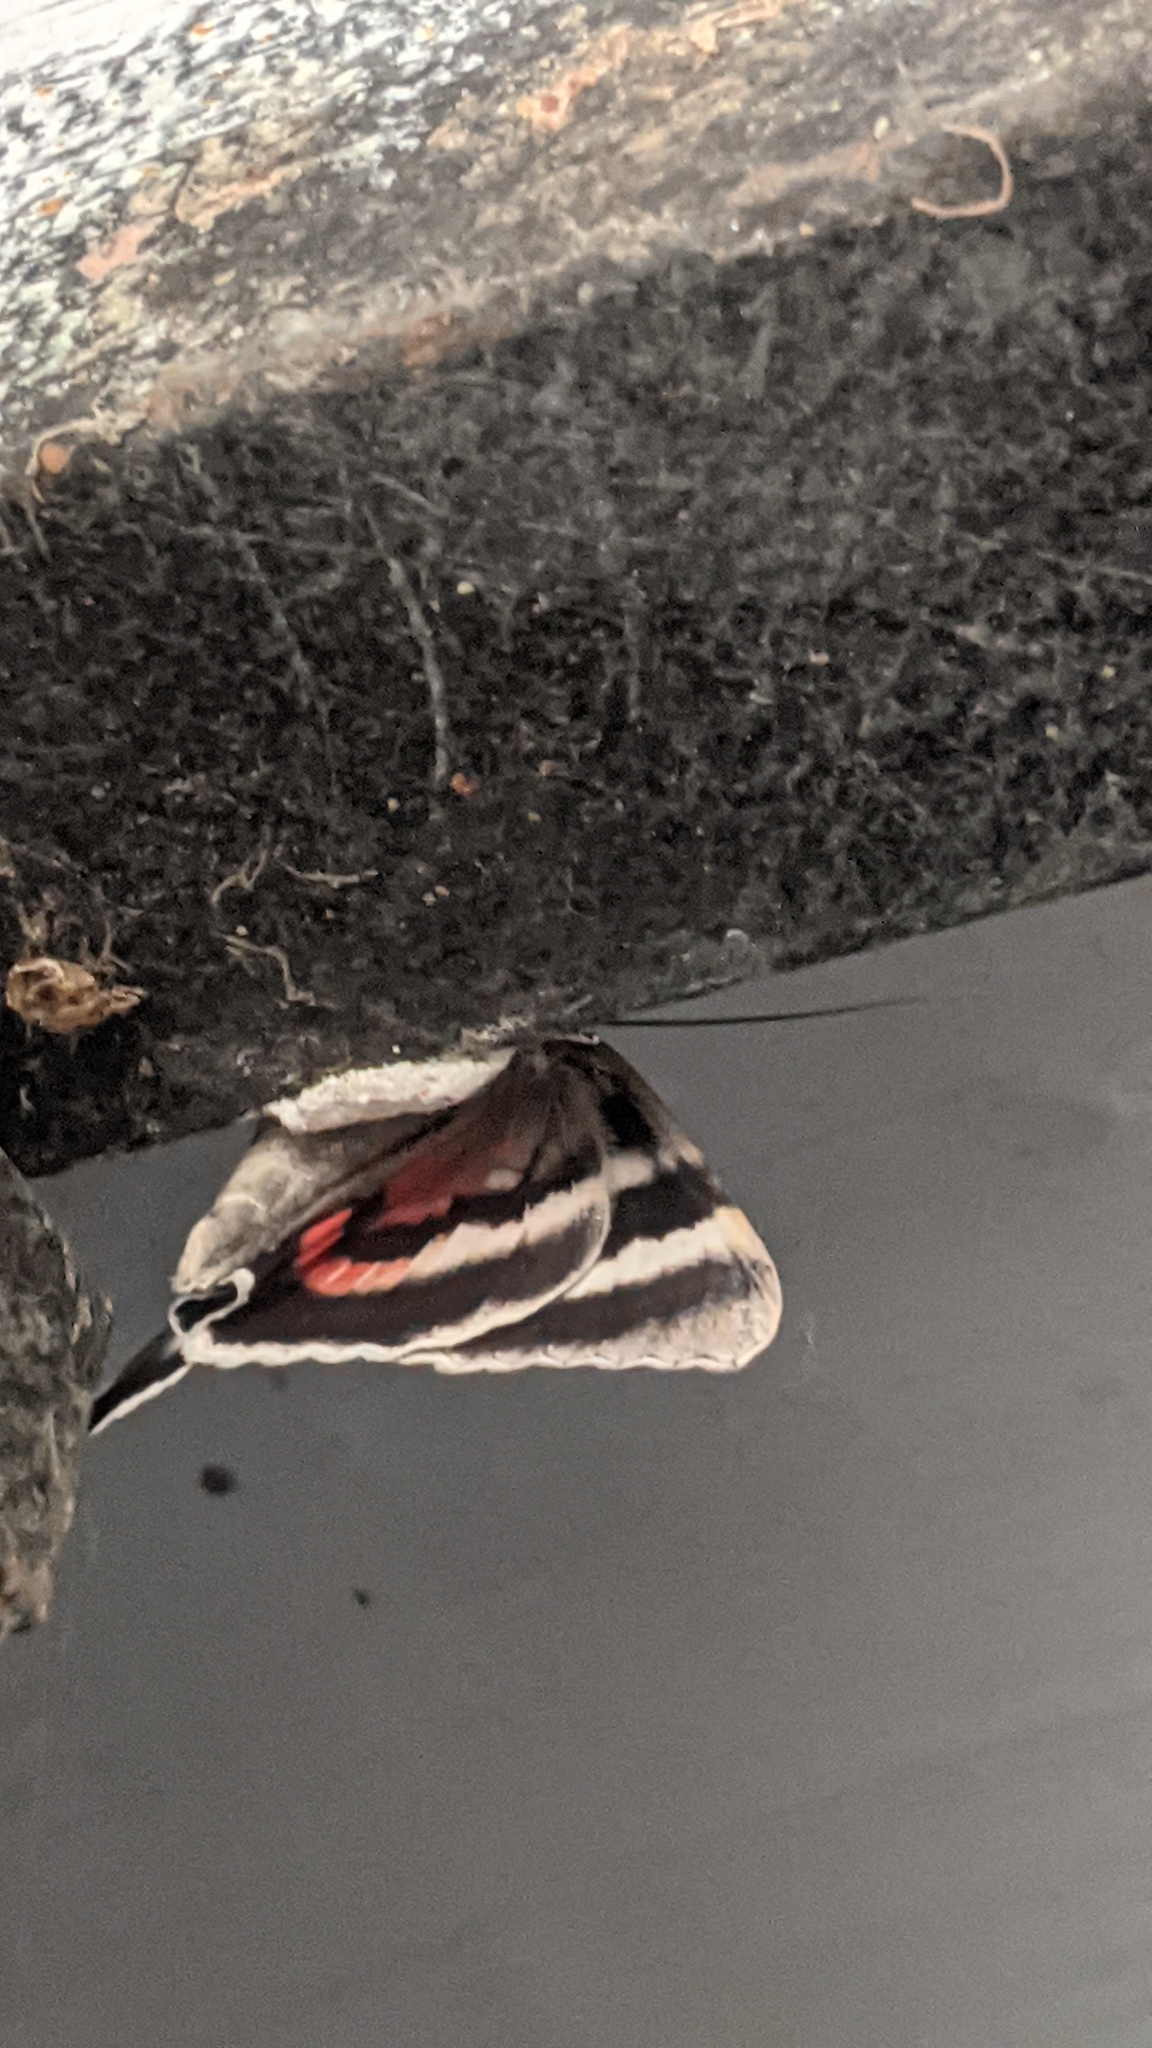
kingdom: Animalia
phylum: Arthropoda
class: Insecta
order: Lepidoptera
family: Erebidae
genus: Catocala
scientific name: Catocala nupta
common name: Red underwing
